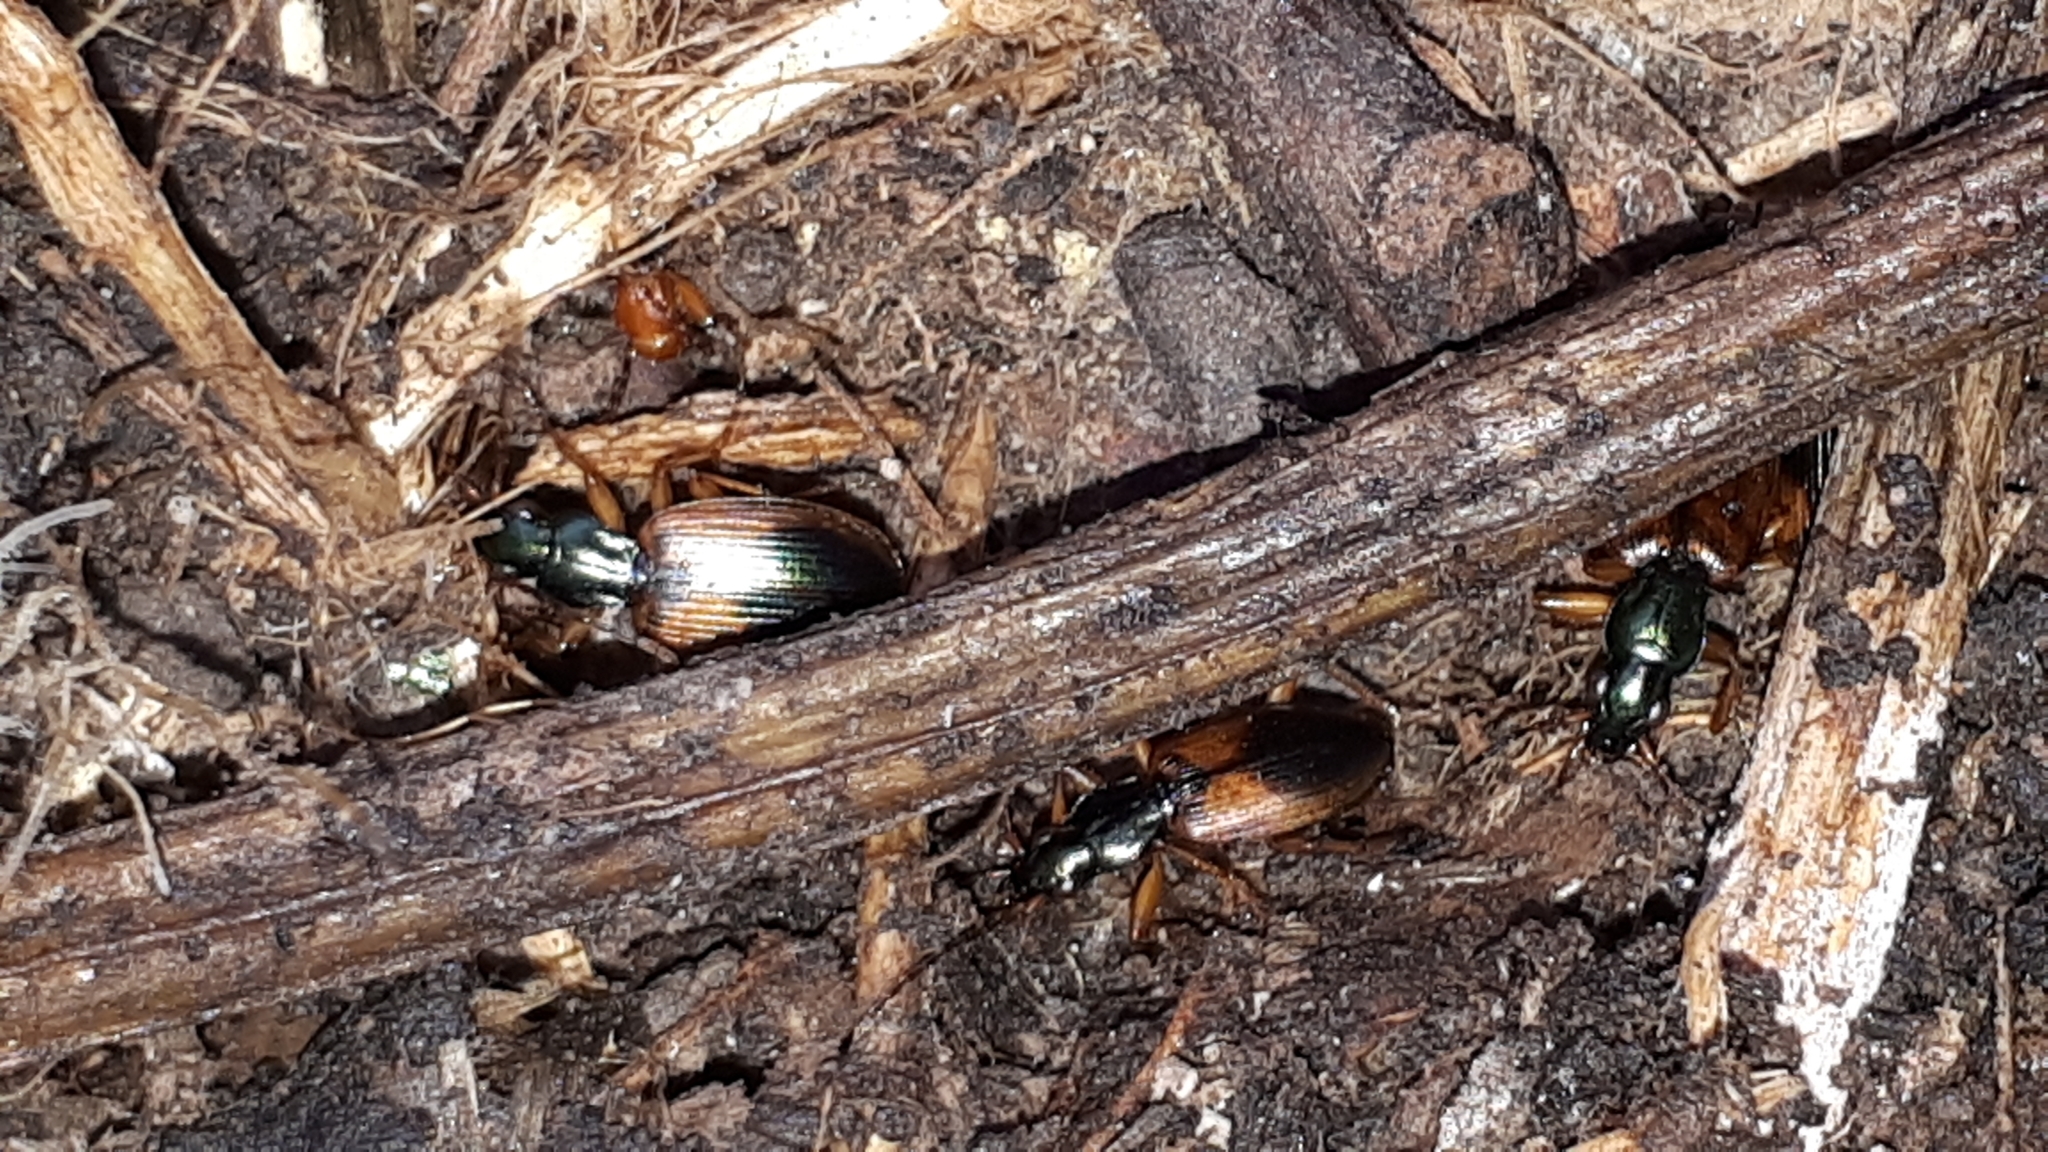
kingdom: Animalia
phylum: Arthropoda
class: Insecta
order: Coleoptera
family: Carabidae
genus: Anchomenus
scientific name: Anchomenus dorsalis
